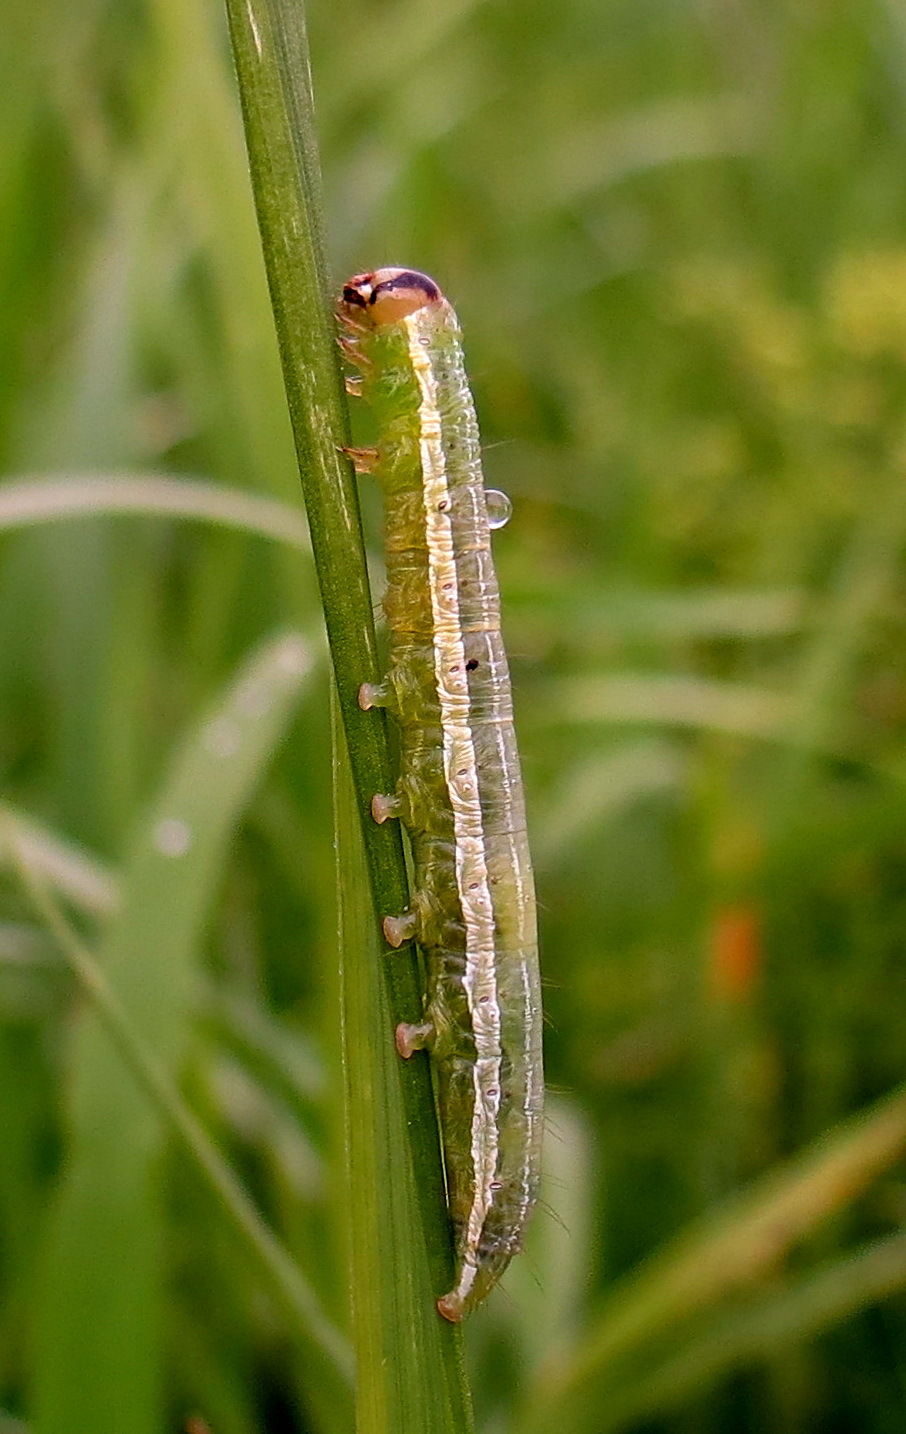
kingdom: Animalia
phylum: Arthropoda
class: Insecta
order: Lepidoptera
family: Noctuidae
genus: Loscopia
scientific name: Loscopia velata
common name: Veiled ear moth
